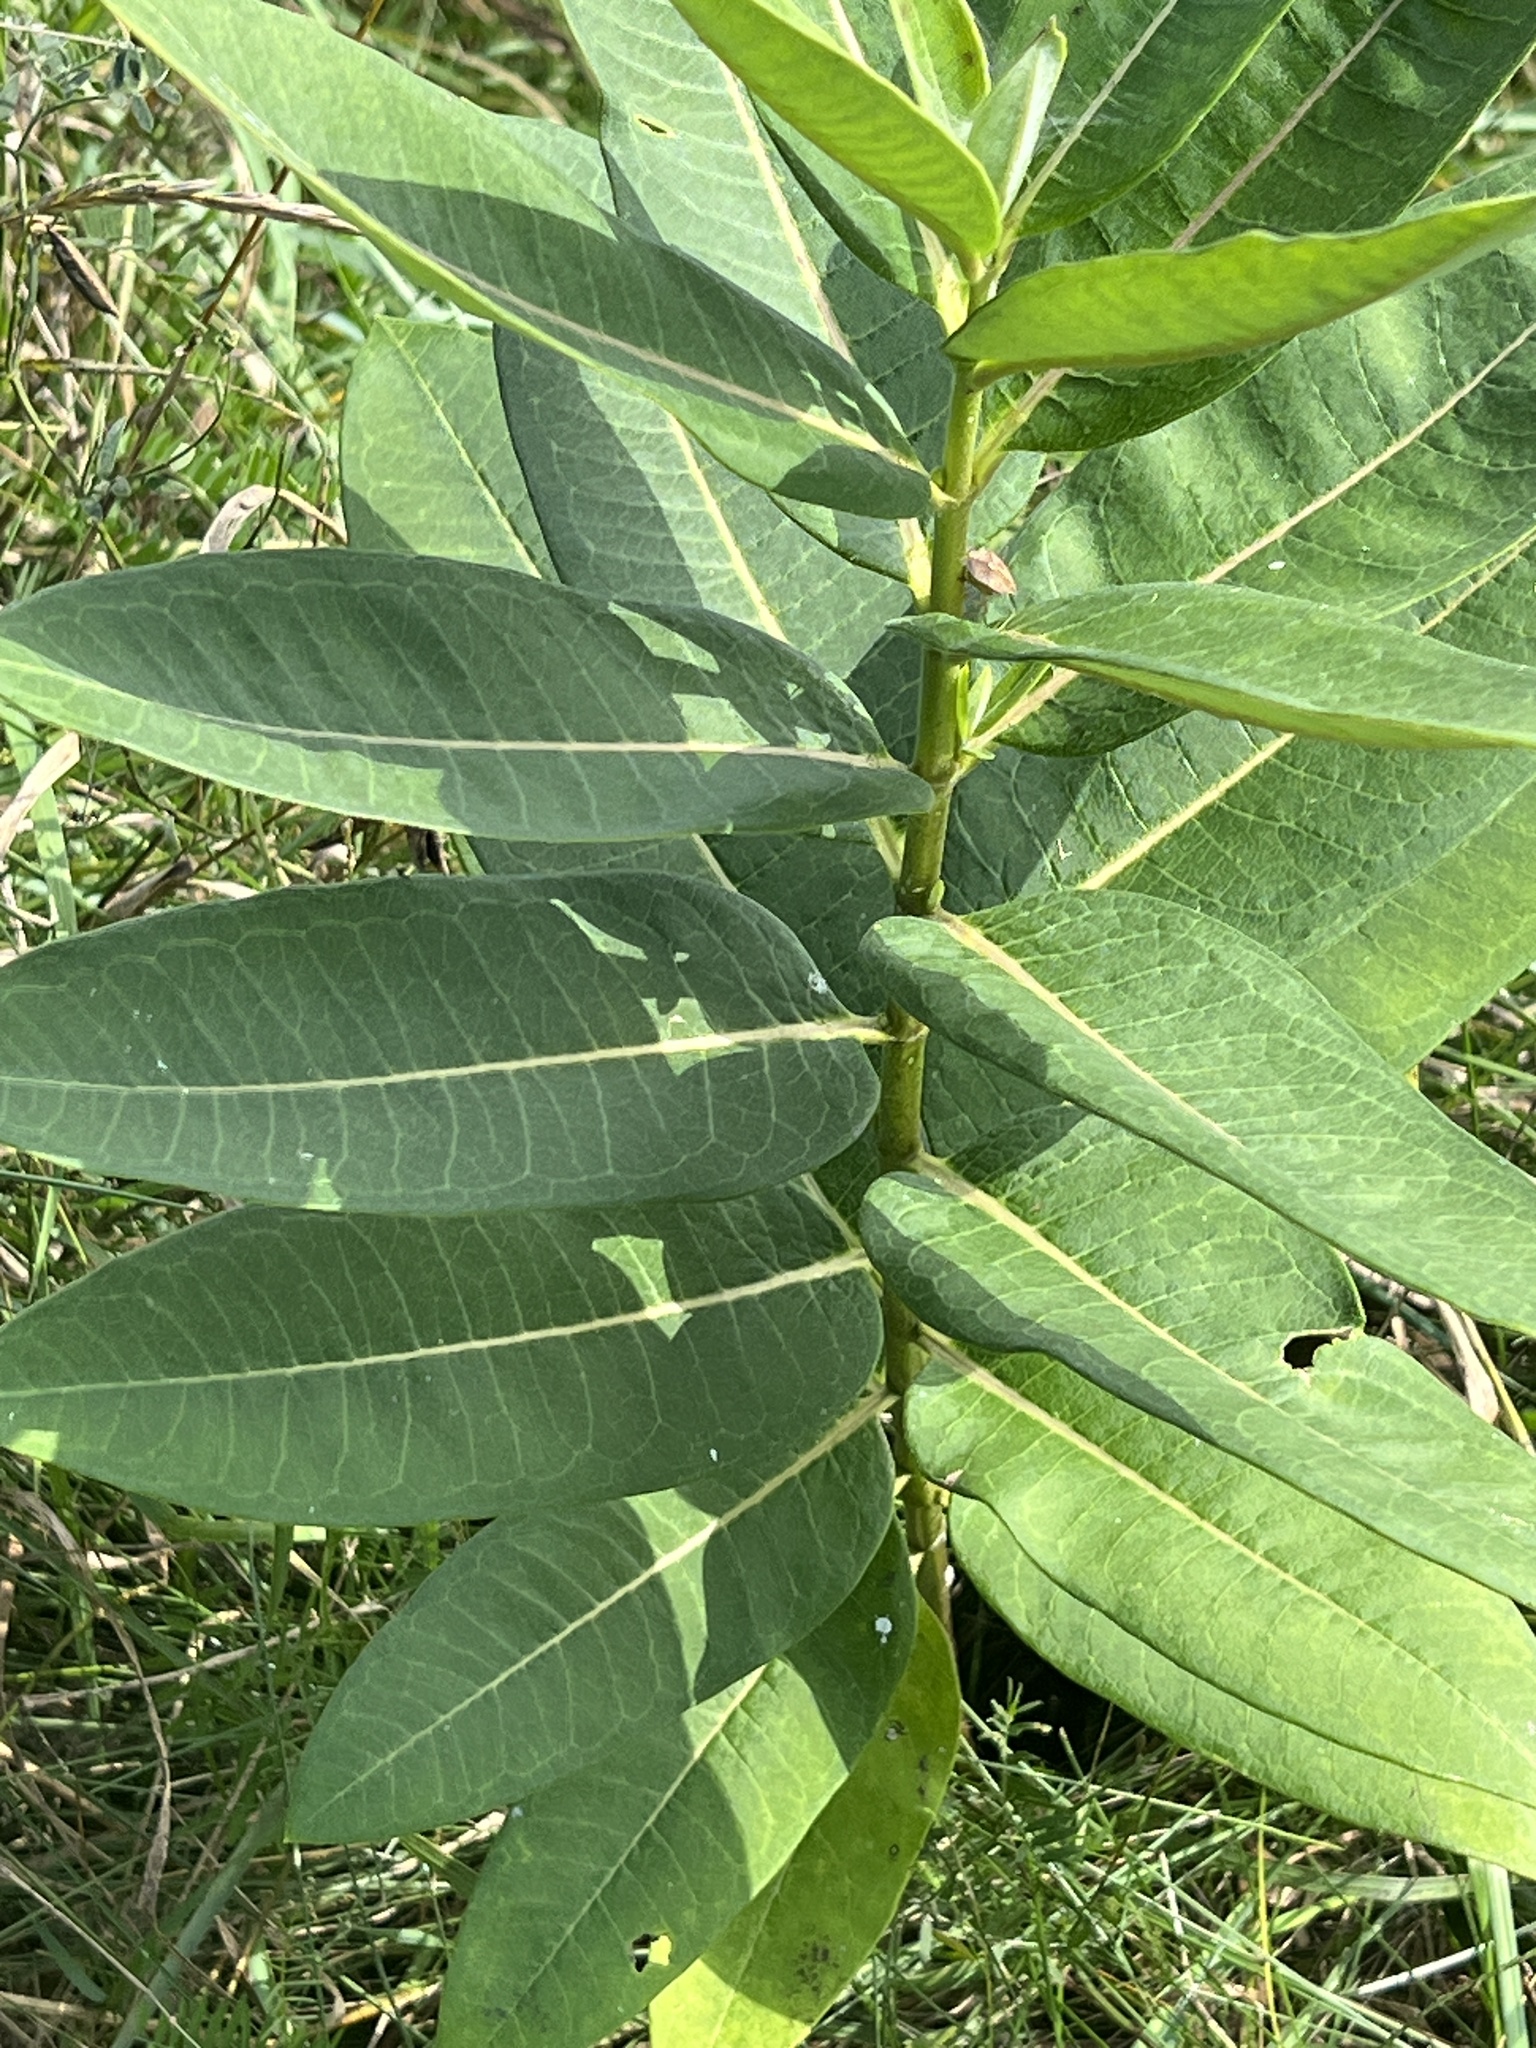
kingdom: Plantae
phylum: Tracheophyta
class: Magnoliopsida
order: Gentianales
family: Apocynaceae
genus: Asclepias
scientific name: Asclepias syriaca
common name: Common milkweed
